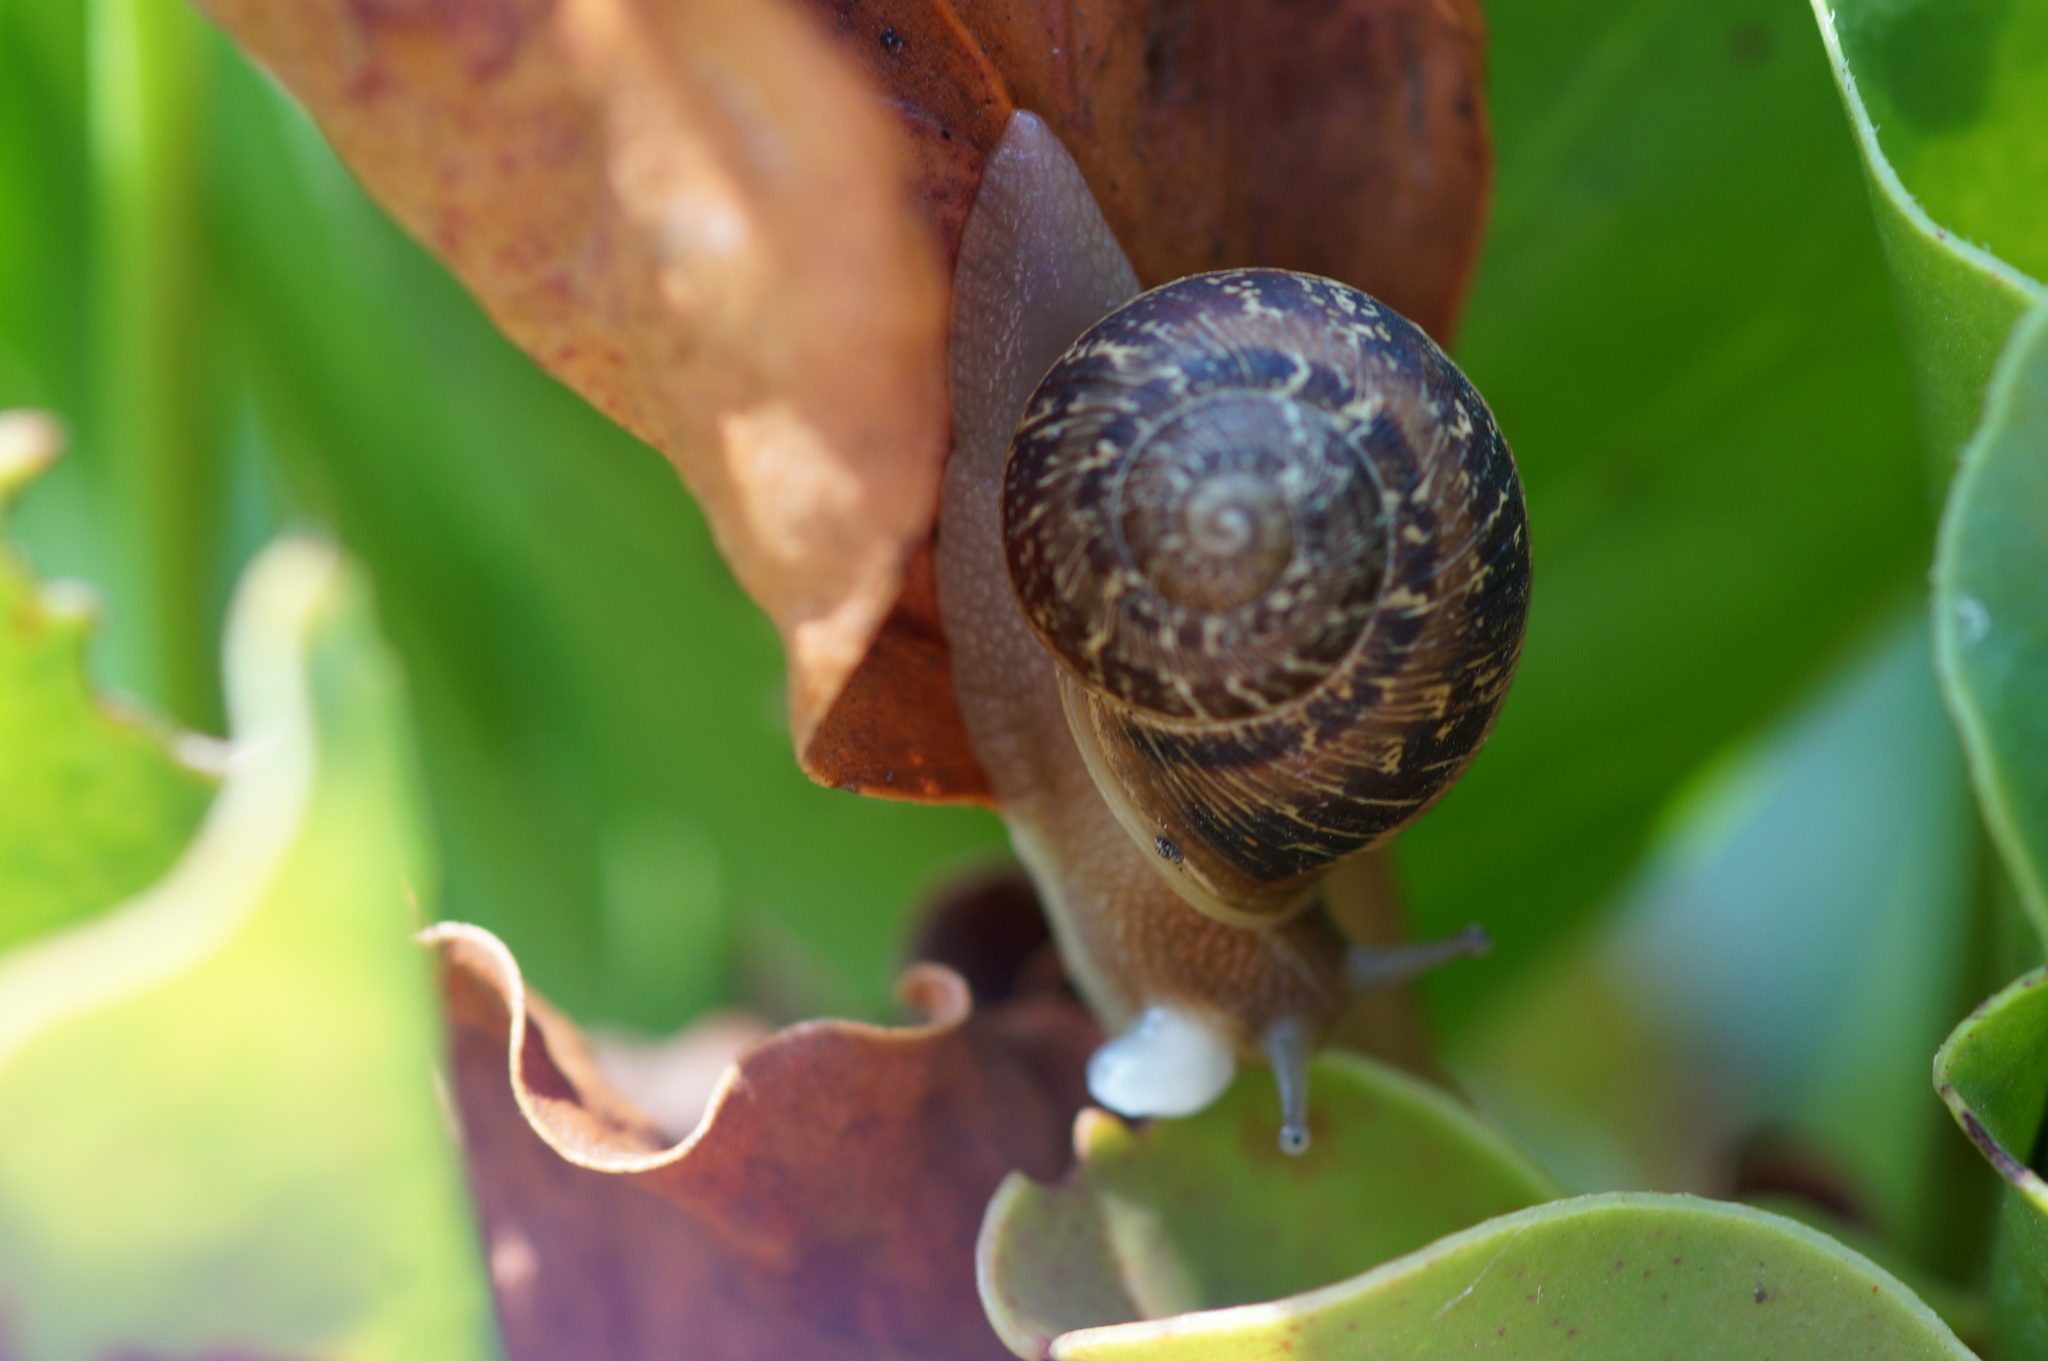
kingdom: Animalia
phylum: Mollusca
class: Gastropoda
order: Stylommatophora
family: Helicidae
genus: Cornu
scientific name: Cornu aspersum
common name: Brown garden snail
